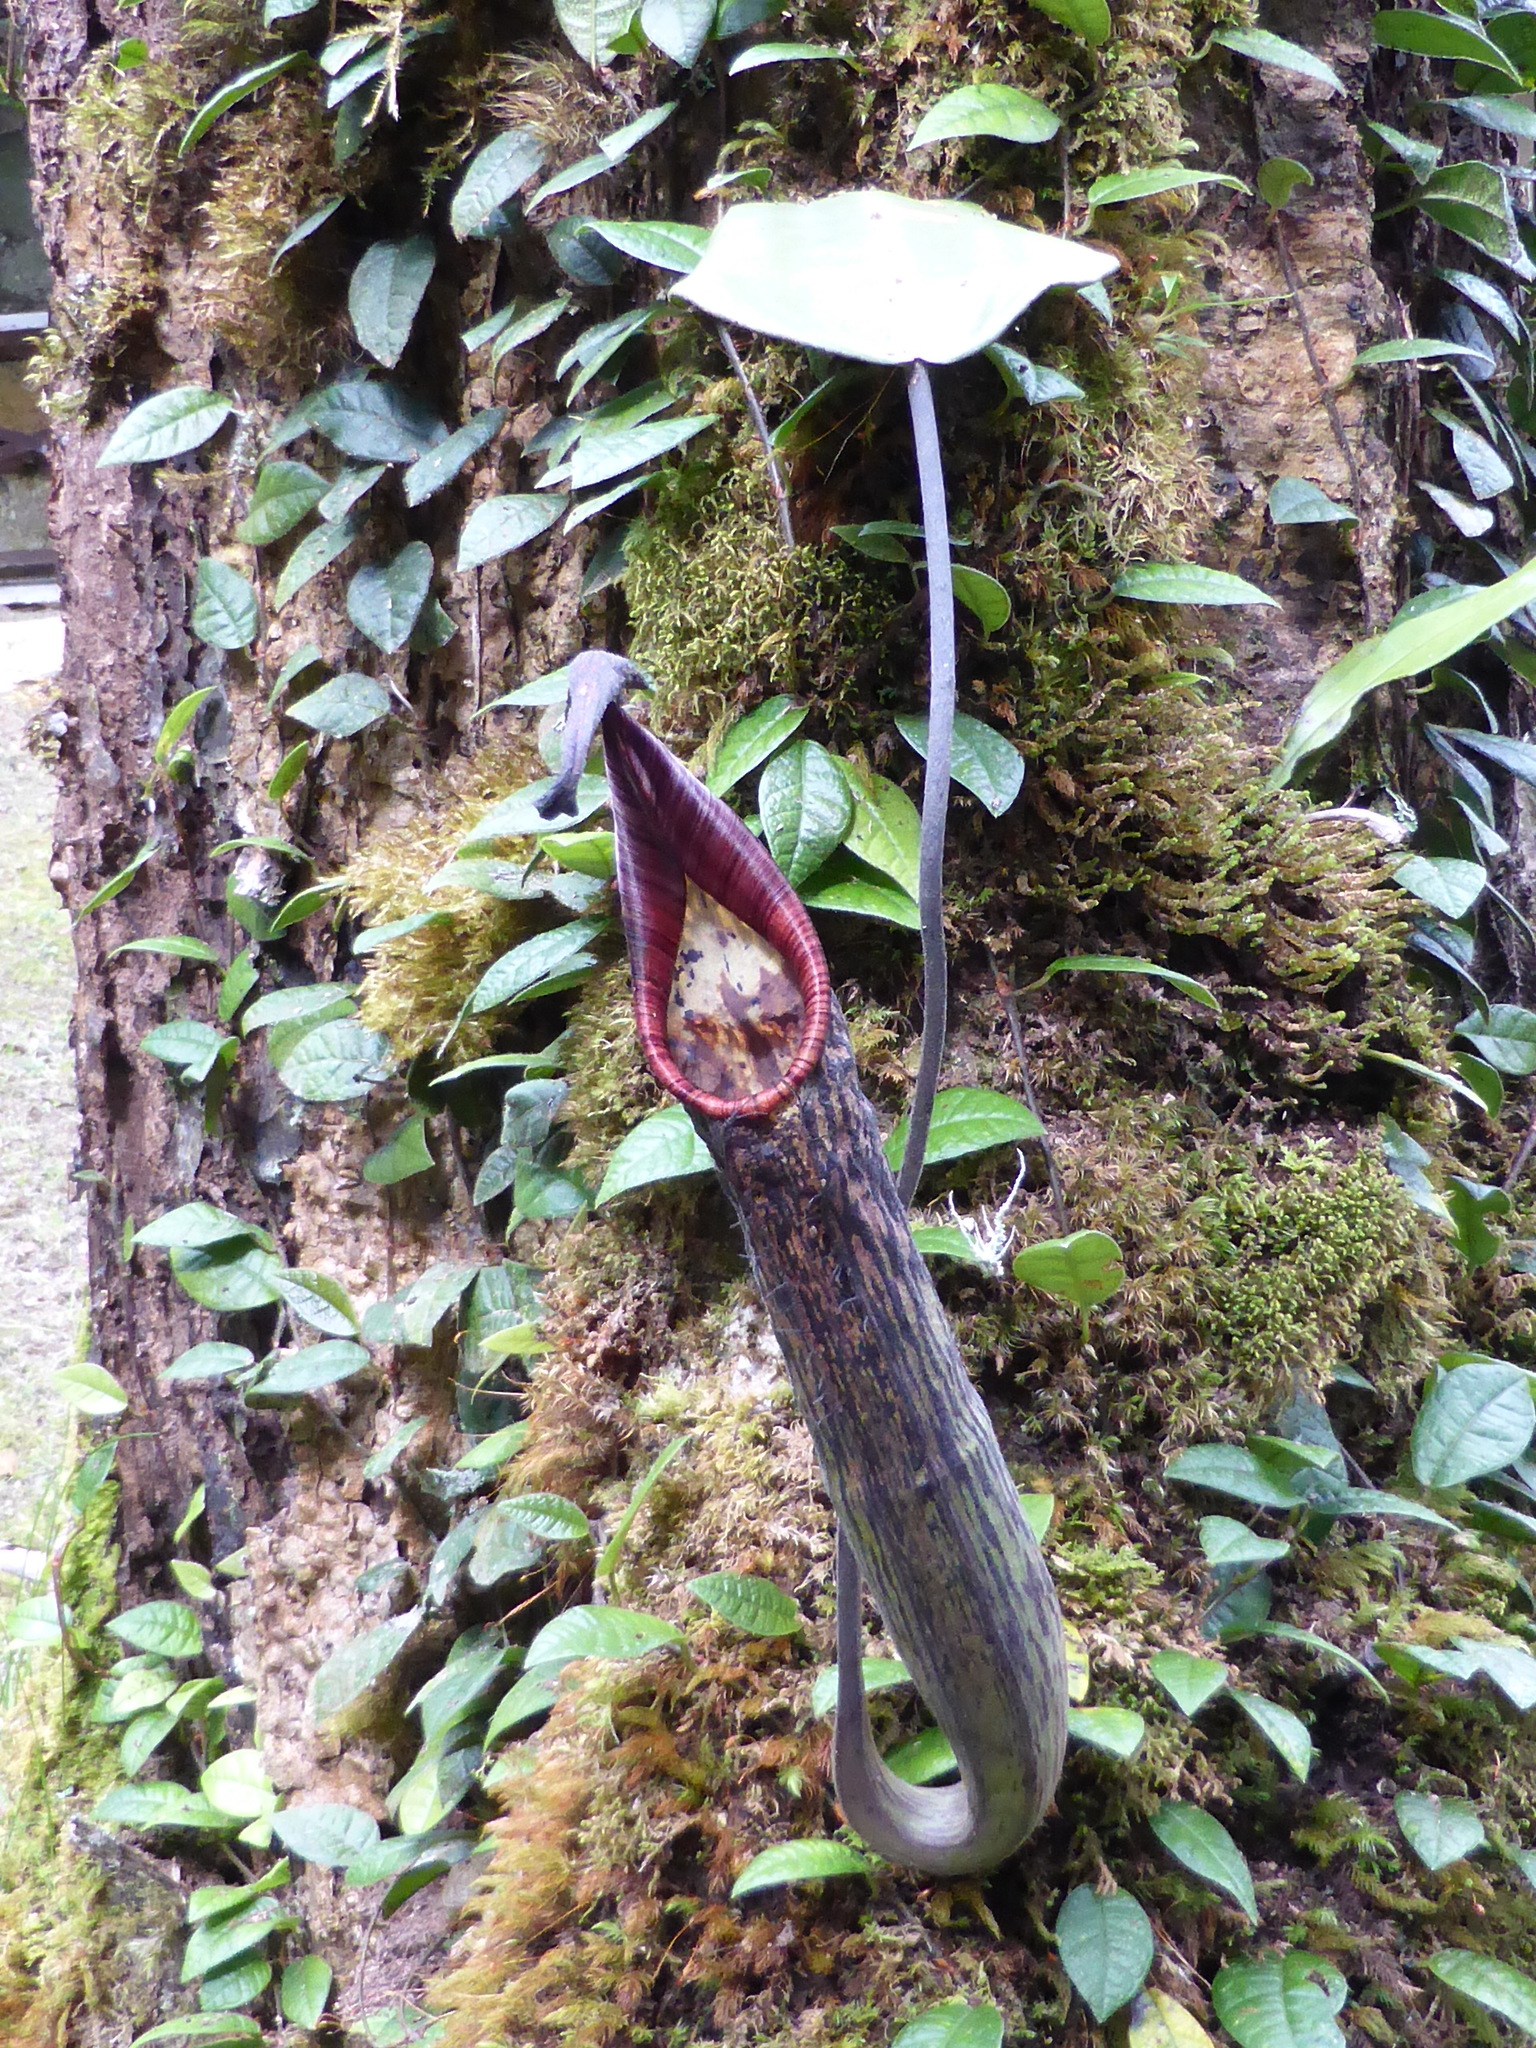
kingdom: Plantae
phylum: Tracheophyta
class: Magnoliopsida
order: Caryophyllales
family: Nepenthaceae
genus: Nepenthes
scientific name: Nepenthes fusca
